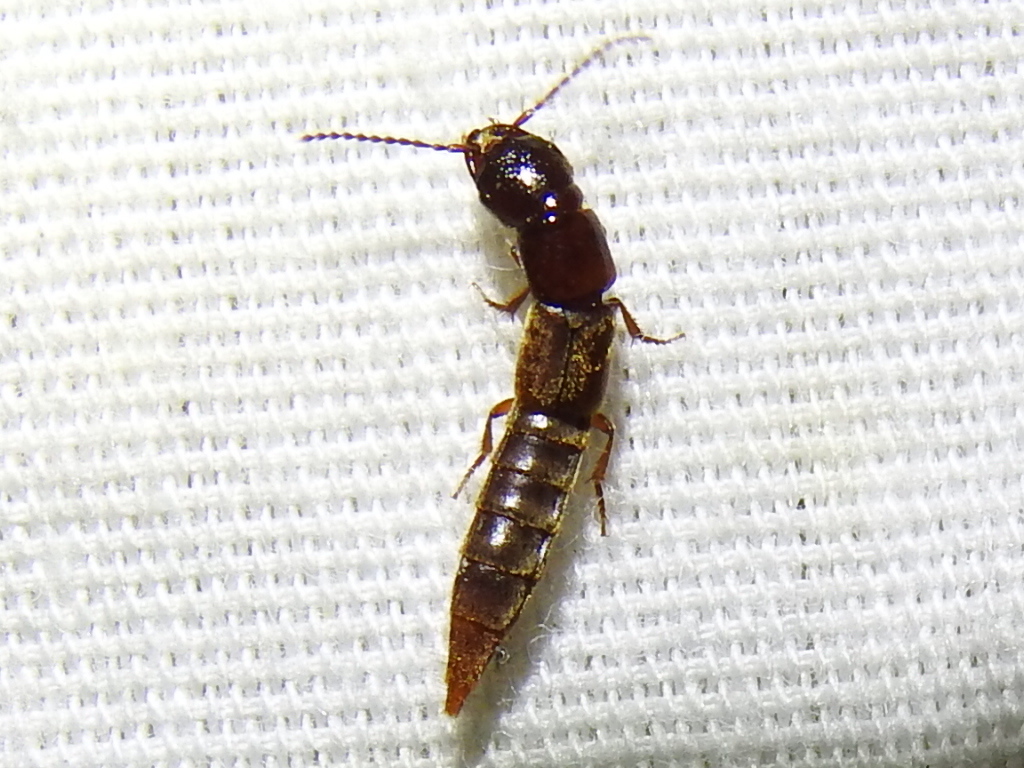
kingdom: Animalia
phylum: Arthropoda
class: Insecta
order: Coleoptera
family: Staphylinidae
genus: Platyprosopus
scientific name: Platyprosopus mexicanus
